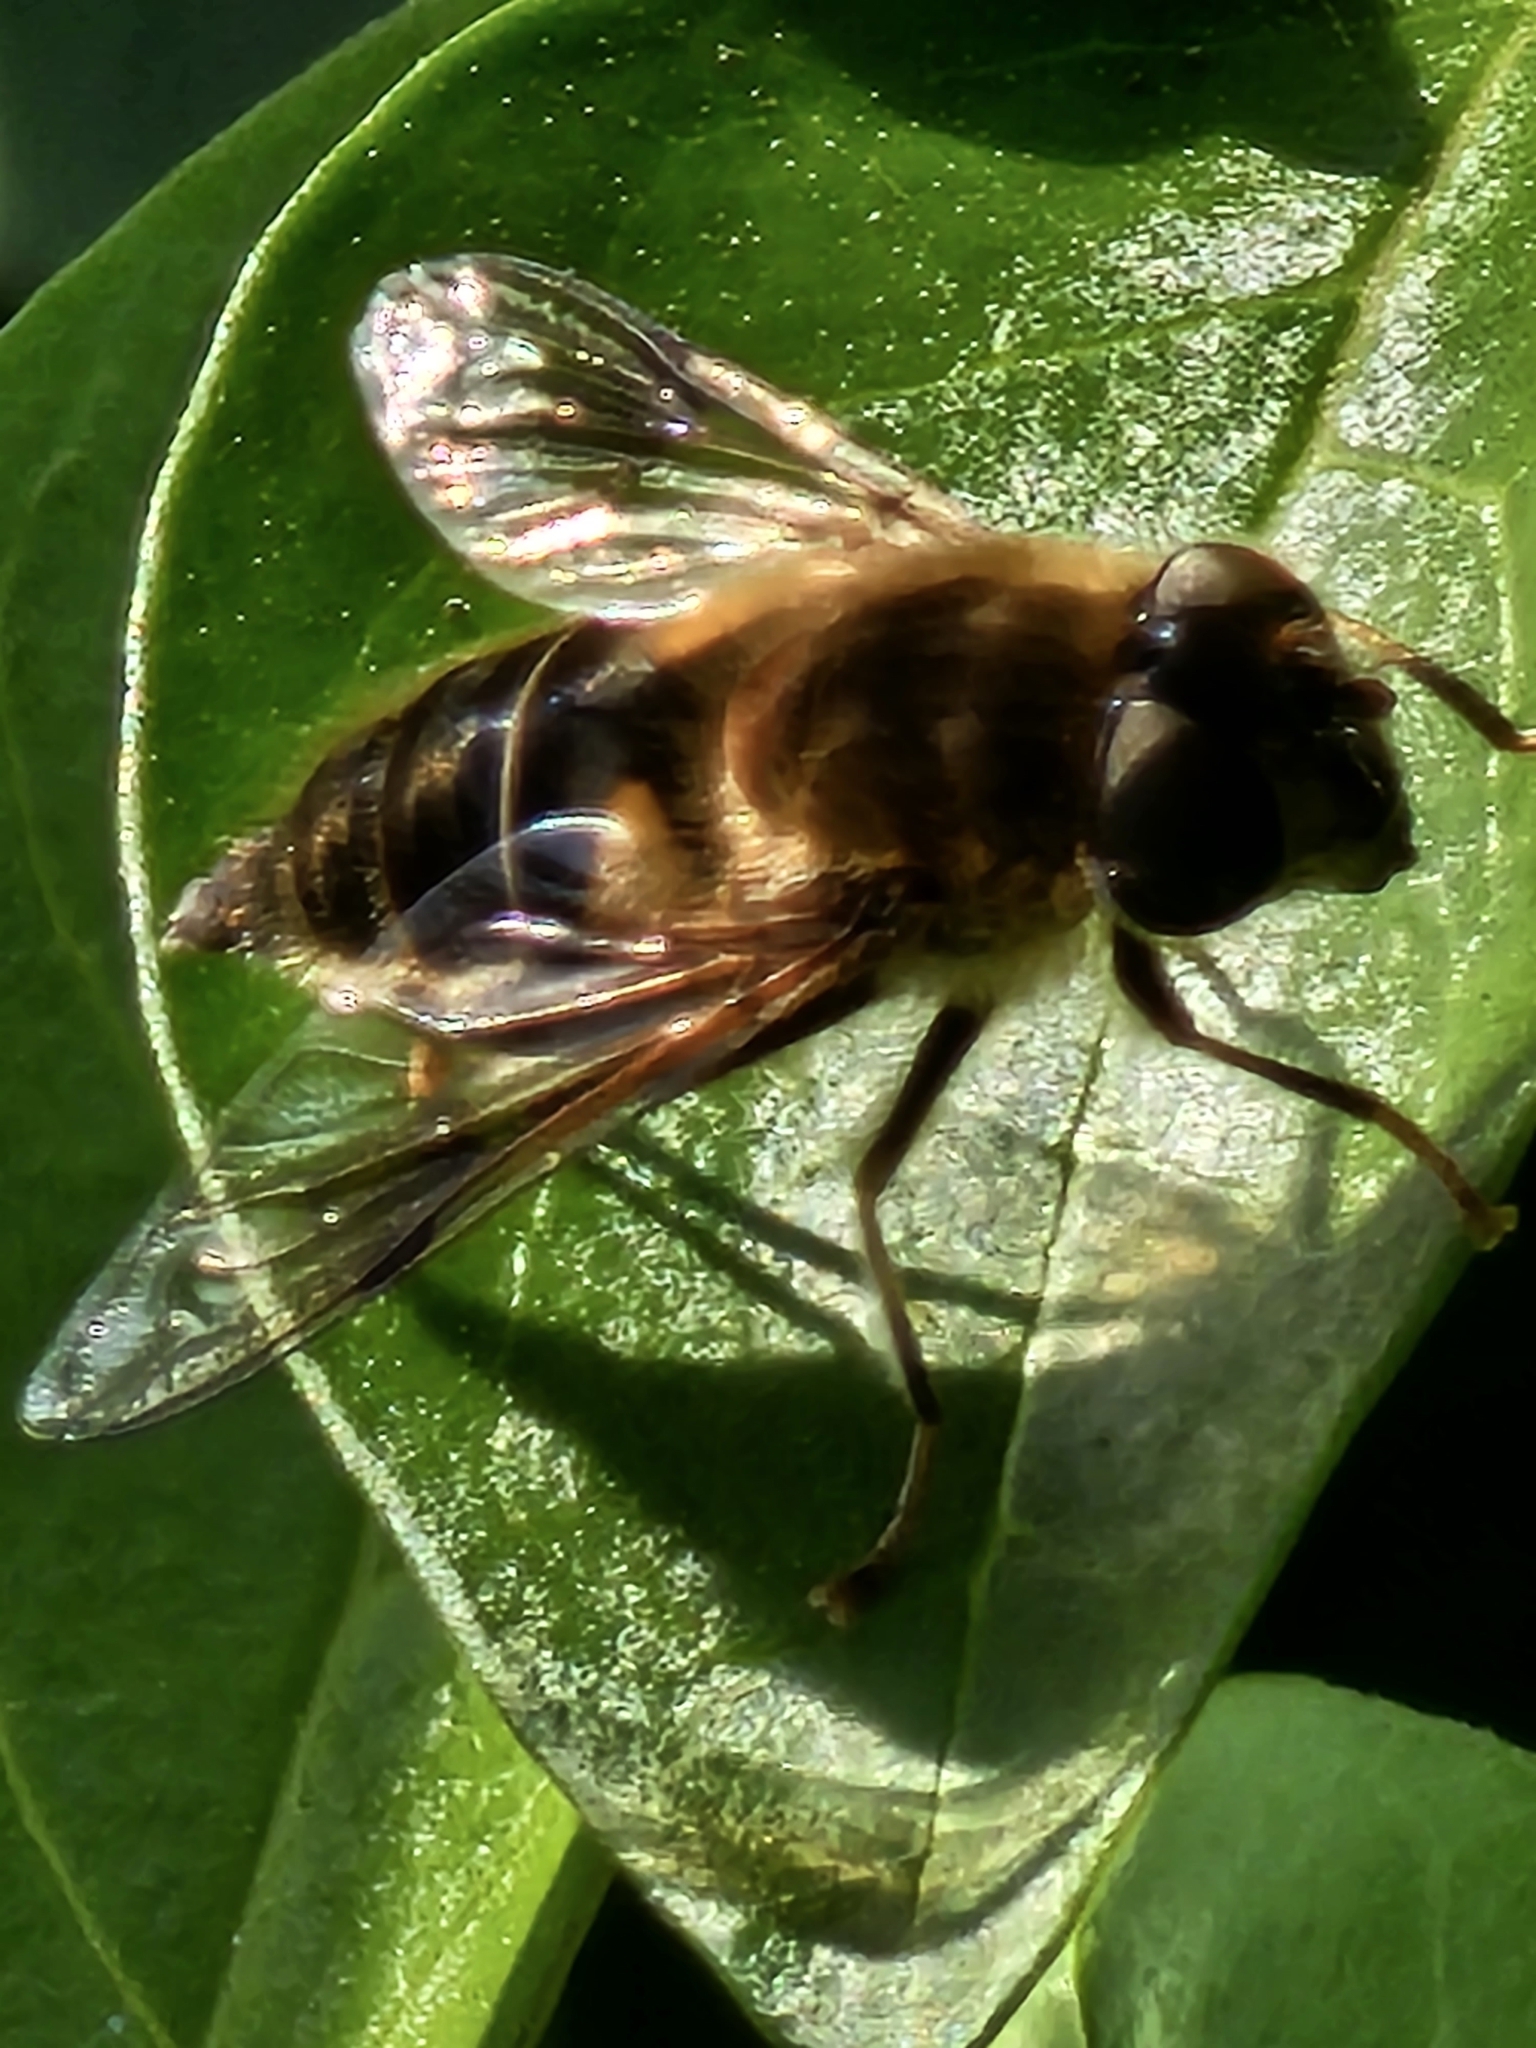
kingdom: Animalia
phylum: Arthropoda
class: Insecta
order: Diptera
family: Syrphidae
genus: Eristalis
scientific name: Eristalis pertinax
